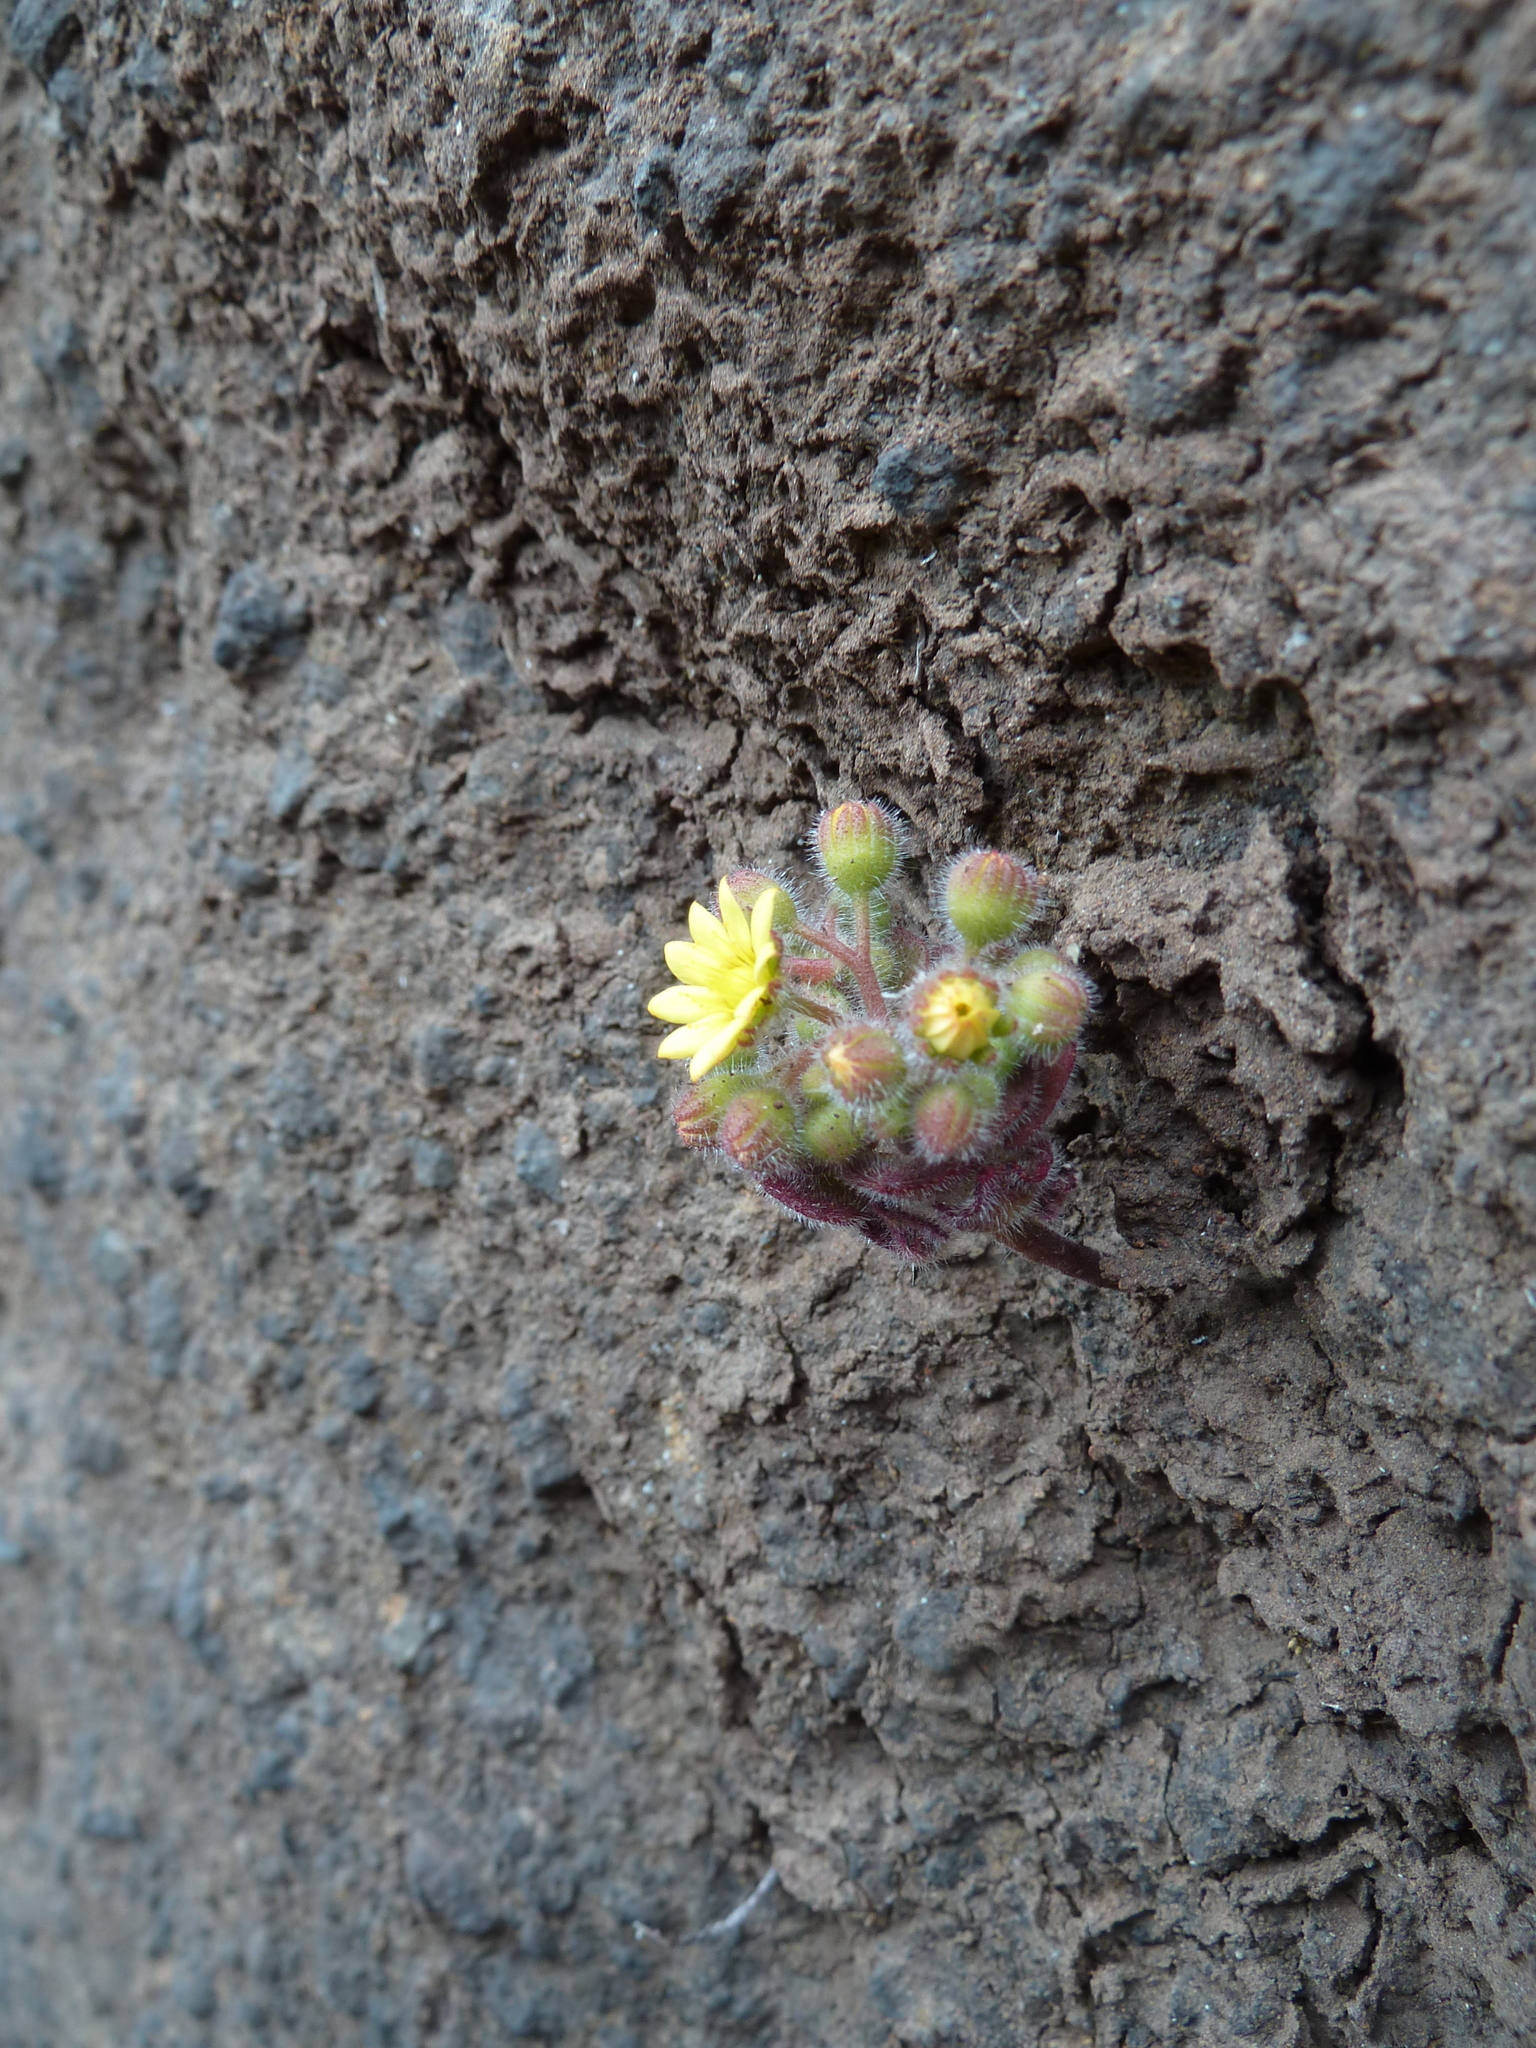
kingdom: Plantae
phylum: Tracheophyta
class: Magnoliopsida
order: Saxifragales
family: Crassulaceae
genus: Aichryson
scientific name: Aichryson villosum
